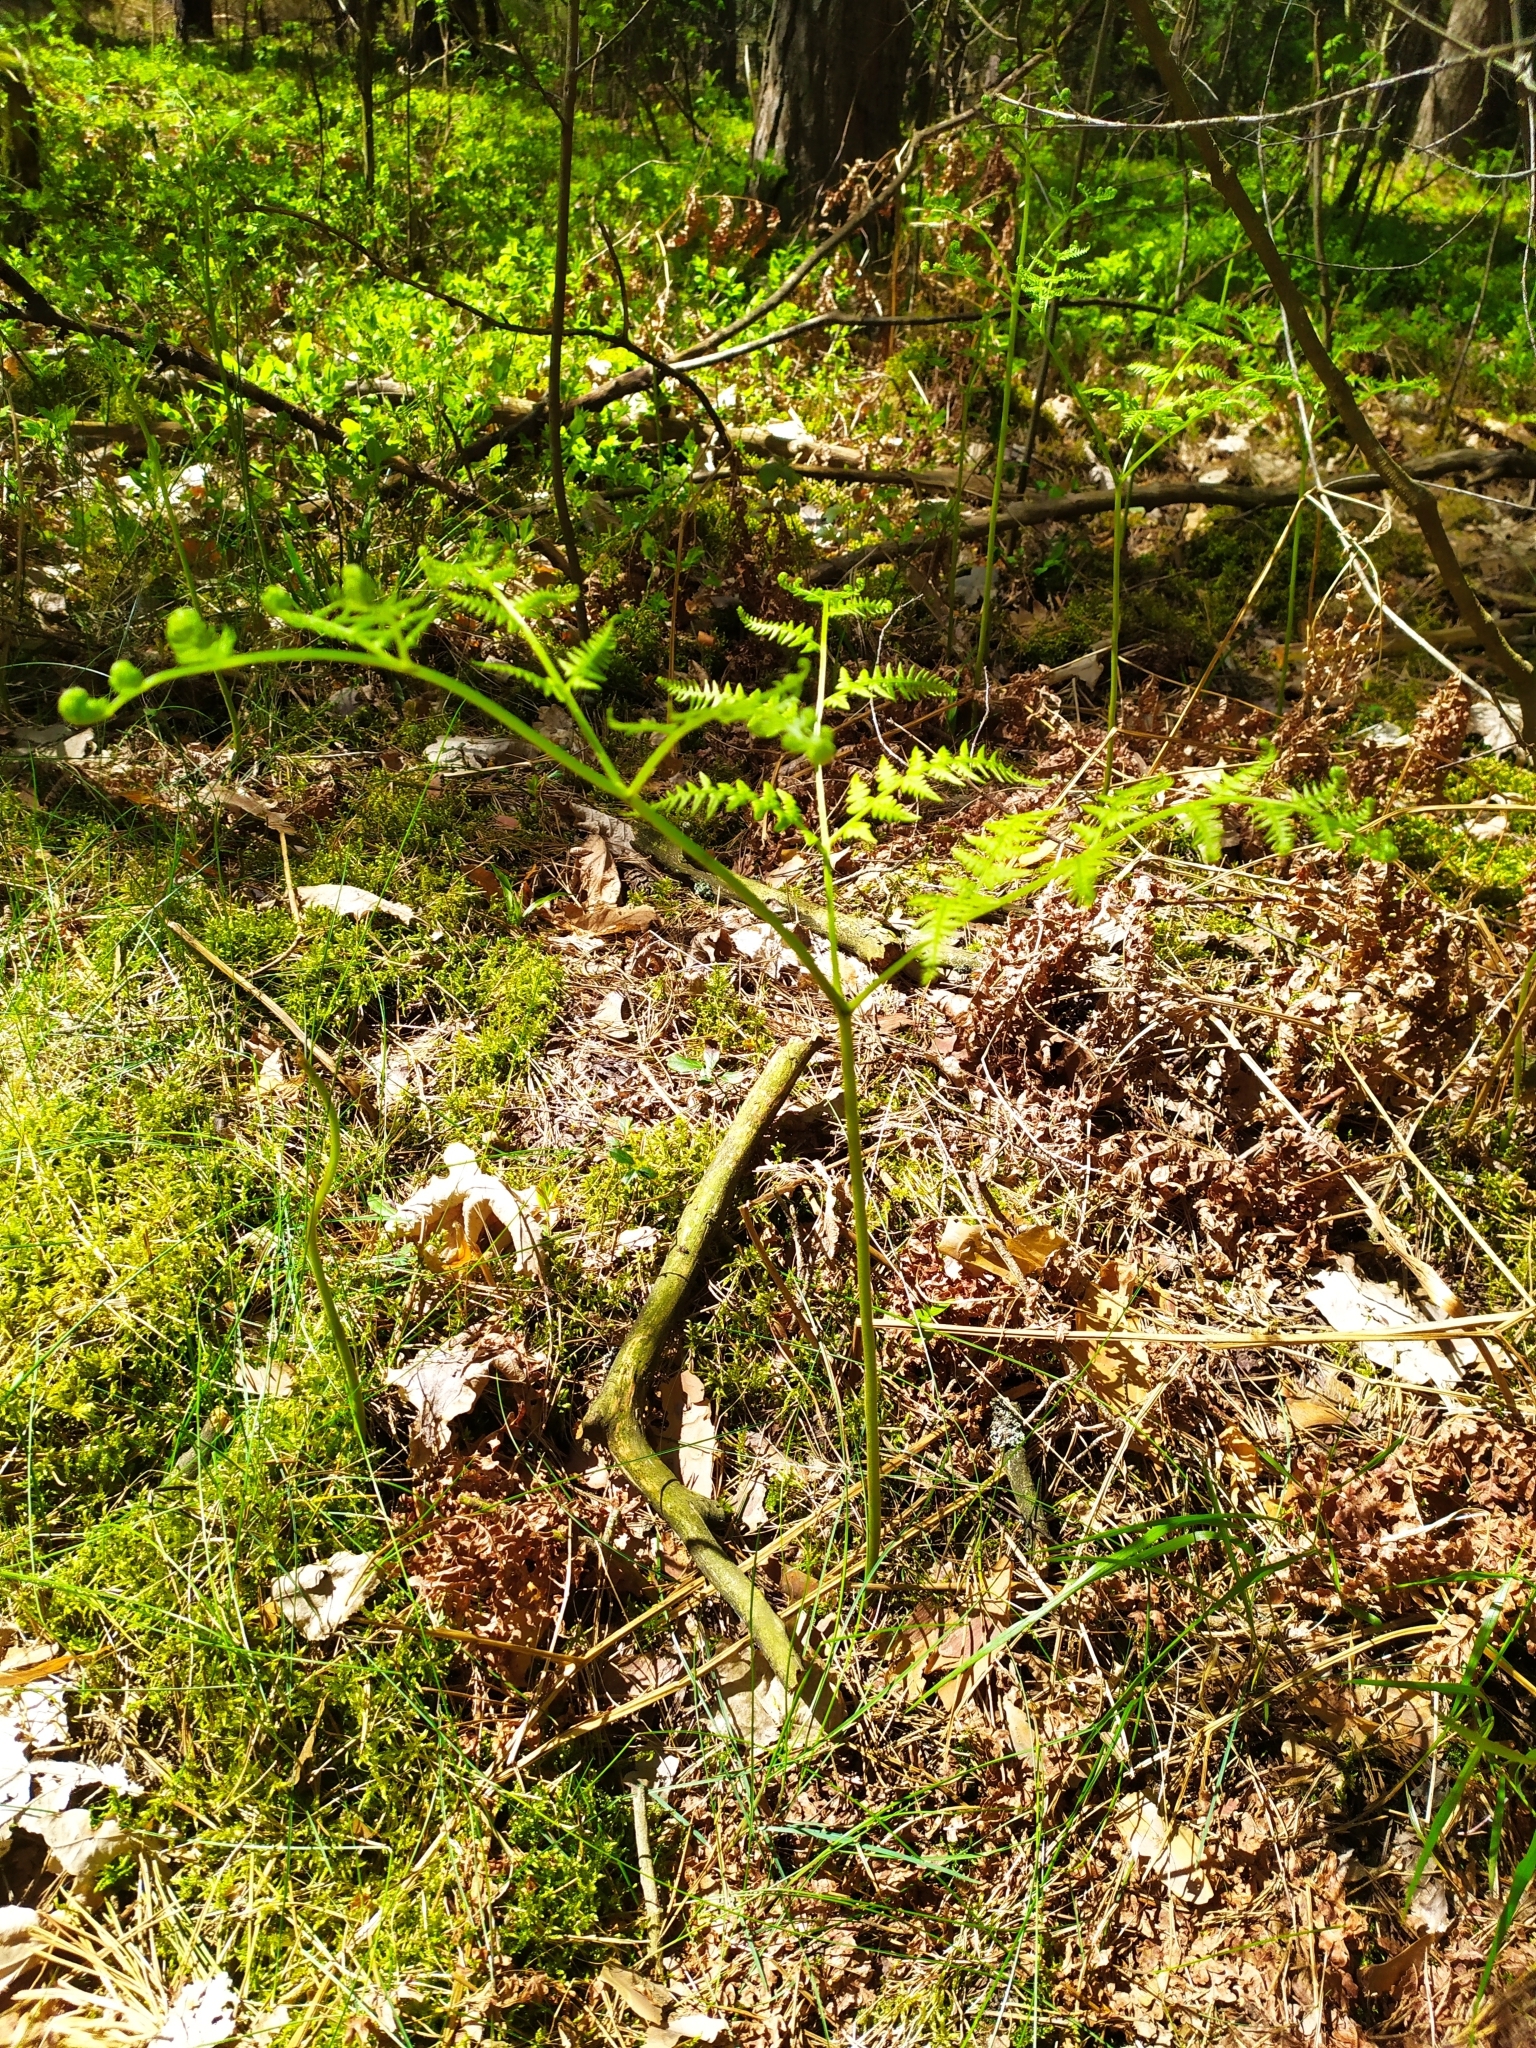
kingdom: Plantae
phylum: Tracheophyta
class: Polypodiopsida
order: Polypodiales
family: Dennstaedtiaceae
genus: Pteridium
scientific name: Pteridium aquilinum
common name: Bracken
